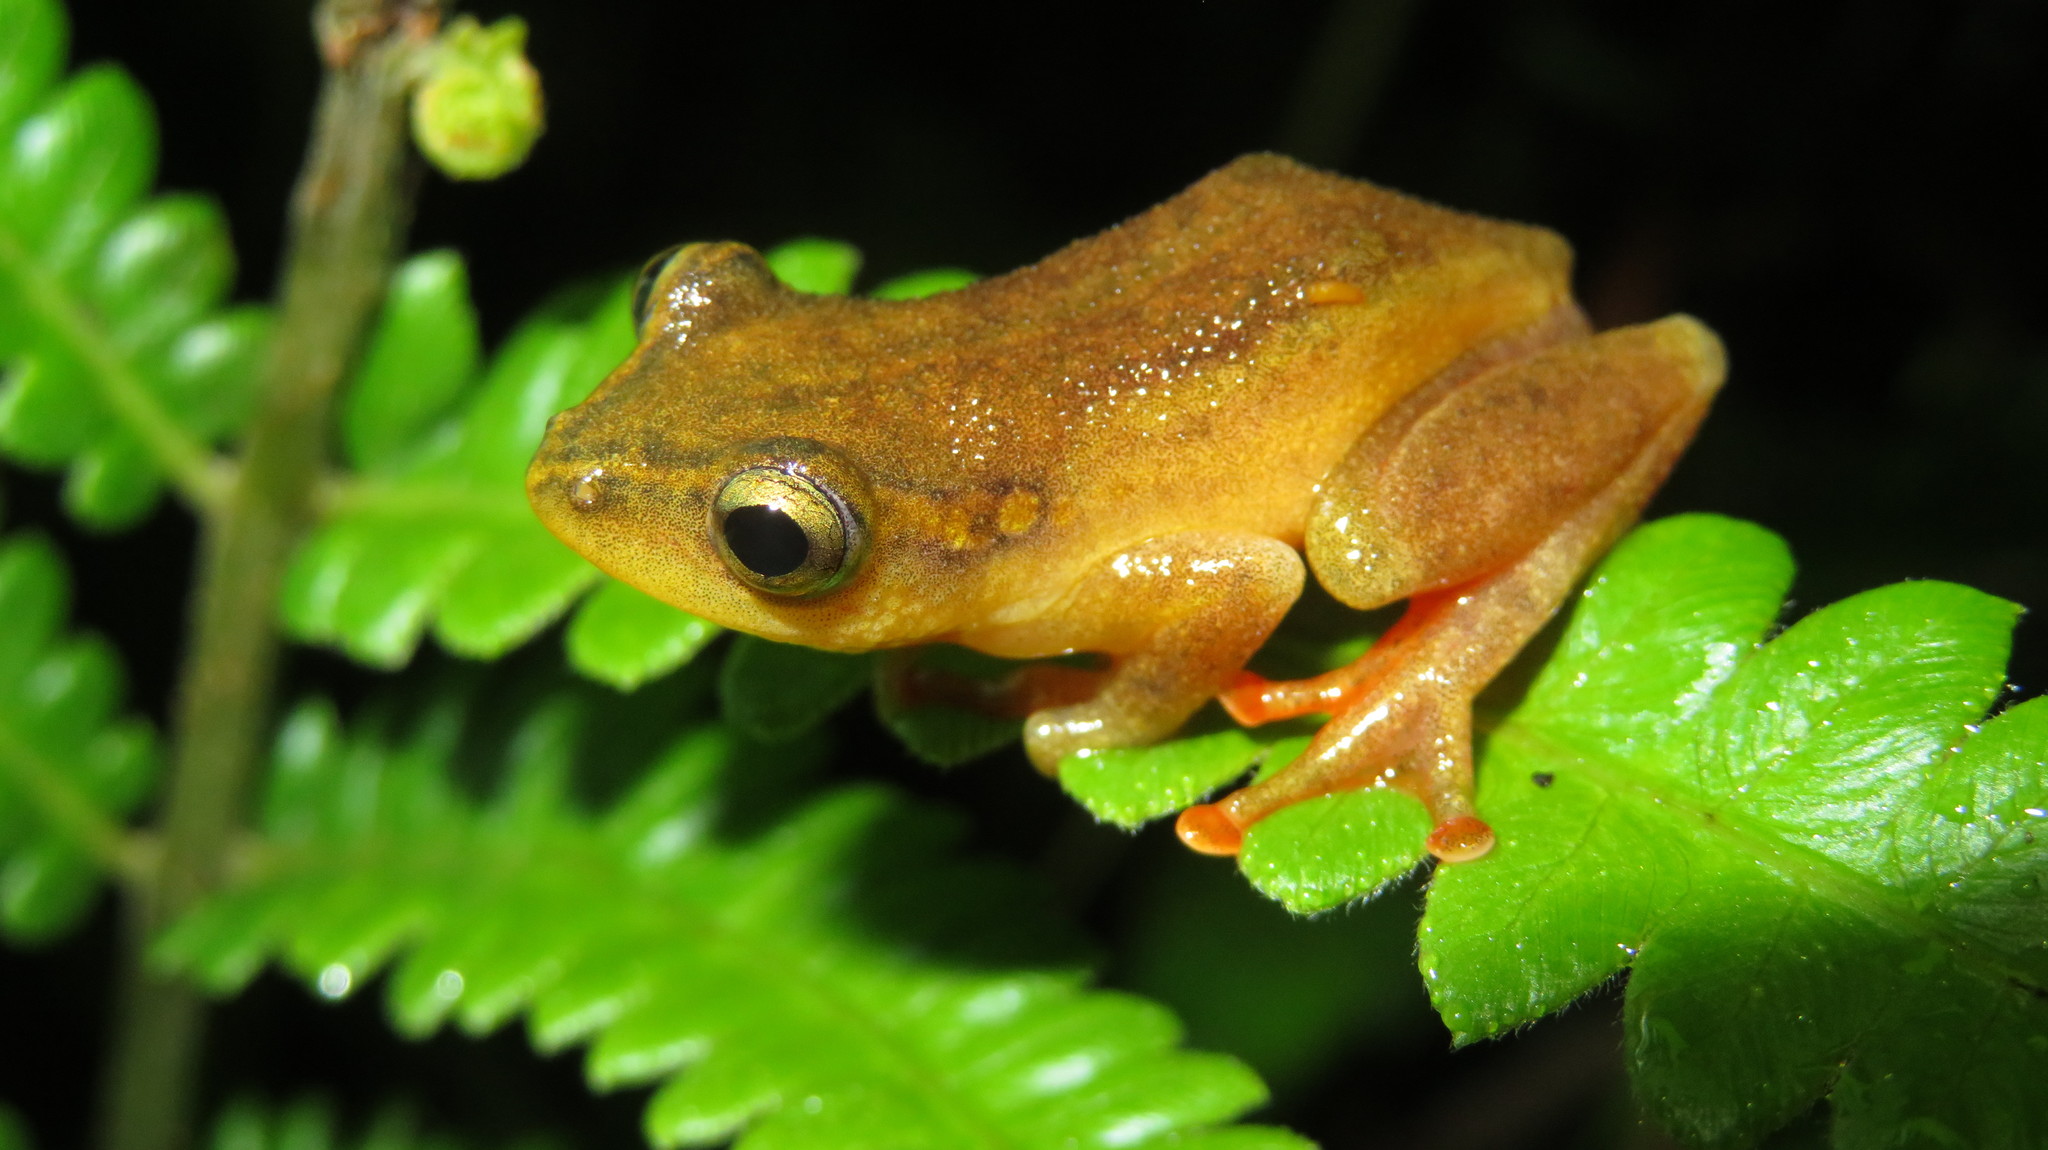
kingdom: Animalia
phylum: Chordata
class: Amphibia
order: Anura
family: Hyperoliidae
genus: Hyperolius
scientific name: Hyperolius substriatus
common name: Spotted reed frog
